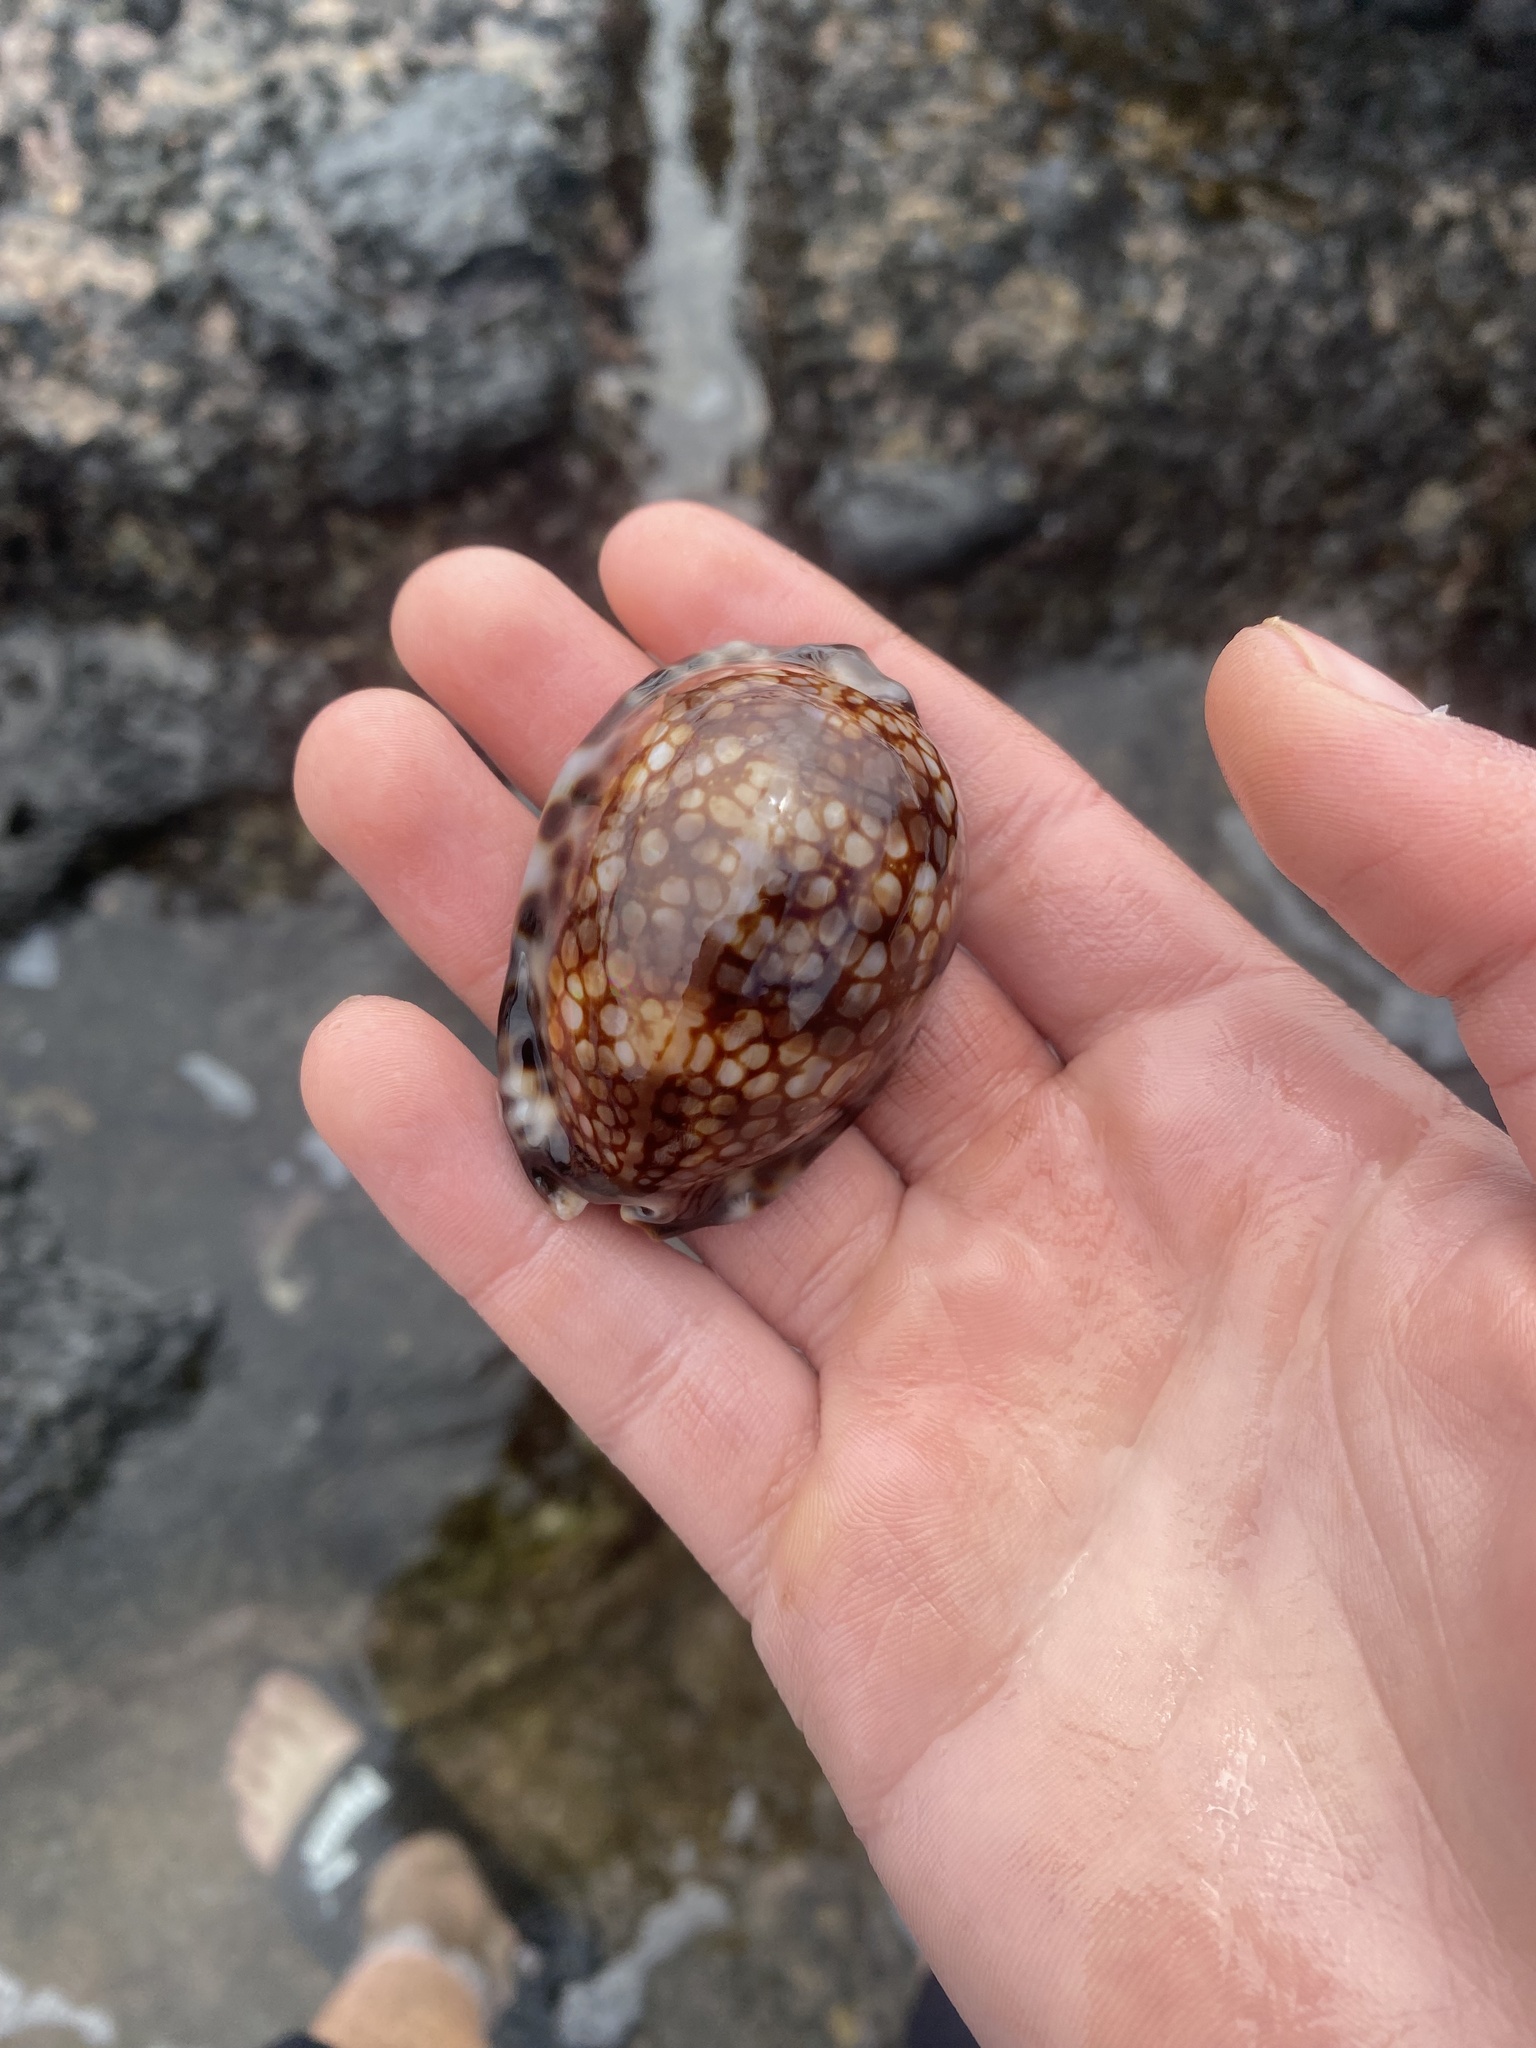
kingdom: Animalia
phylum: Mollusca
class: Gastropoda
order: Littorinimorpha
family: Cypraeidae
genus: Mauritia
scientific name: Mauritia maculifera
